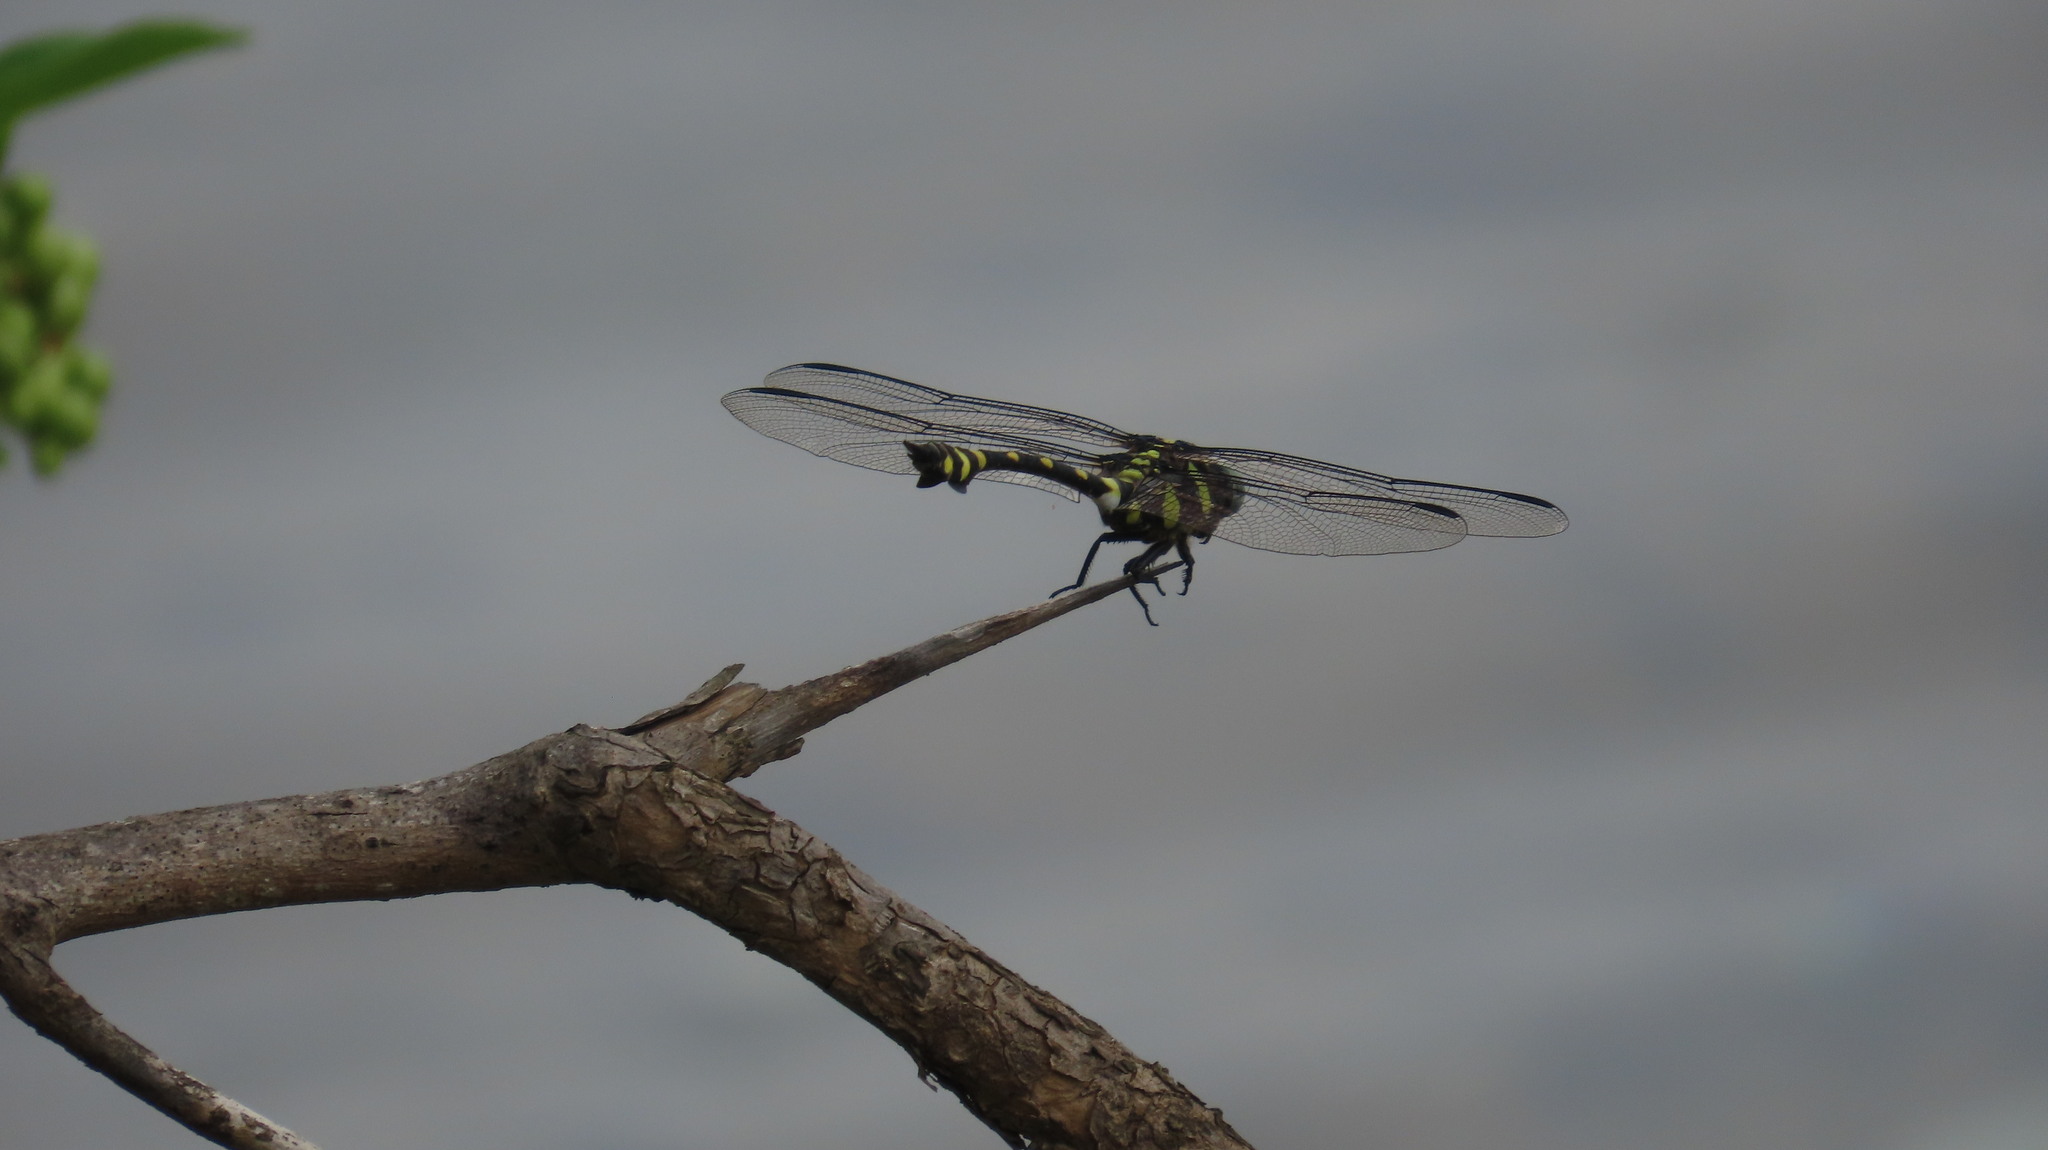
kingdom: Animalia
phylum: Arthropoda
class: Insecta
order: Odonata
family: Gomphidae
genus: Ictinogomphus
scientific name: Ictinogomphus rapax
